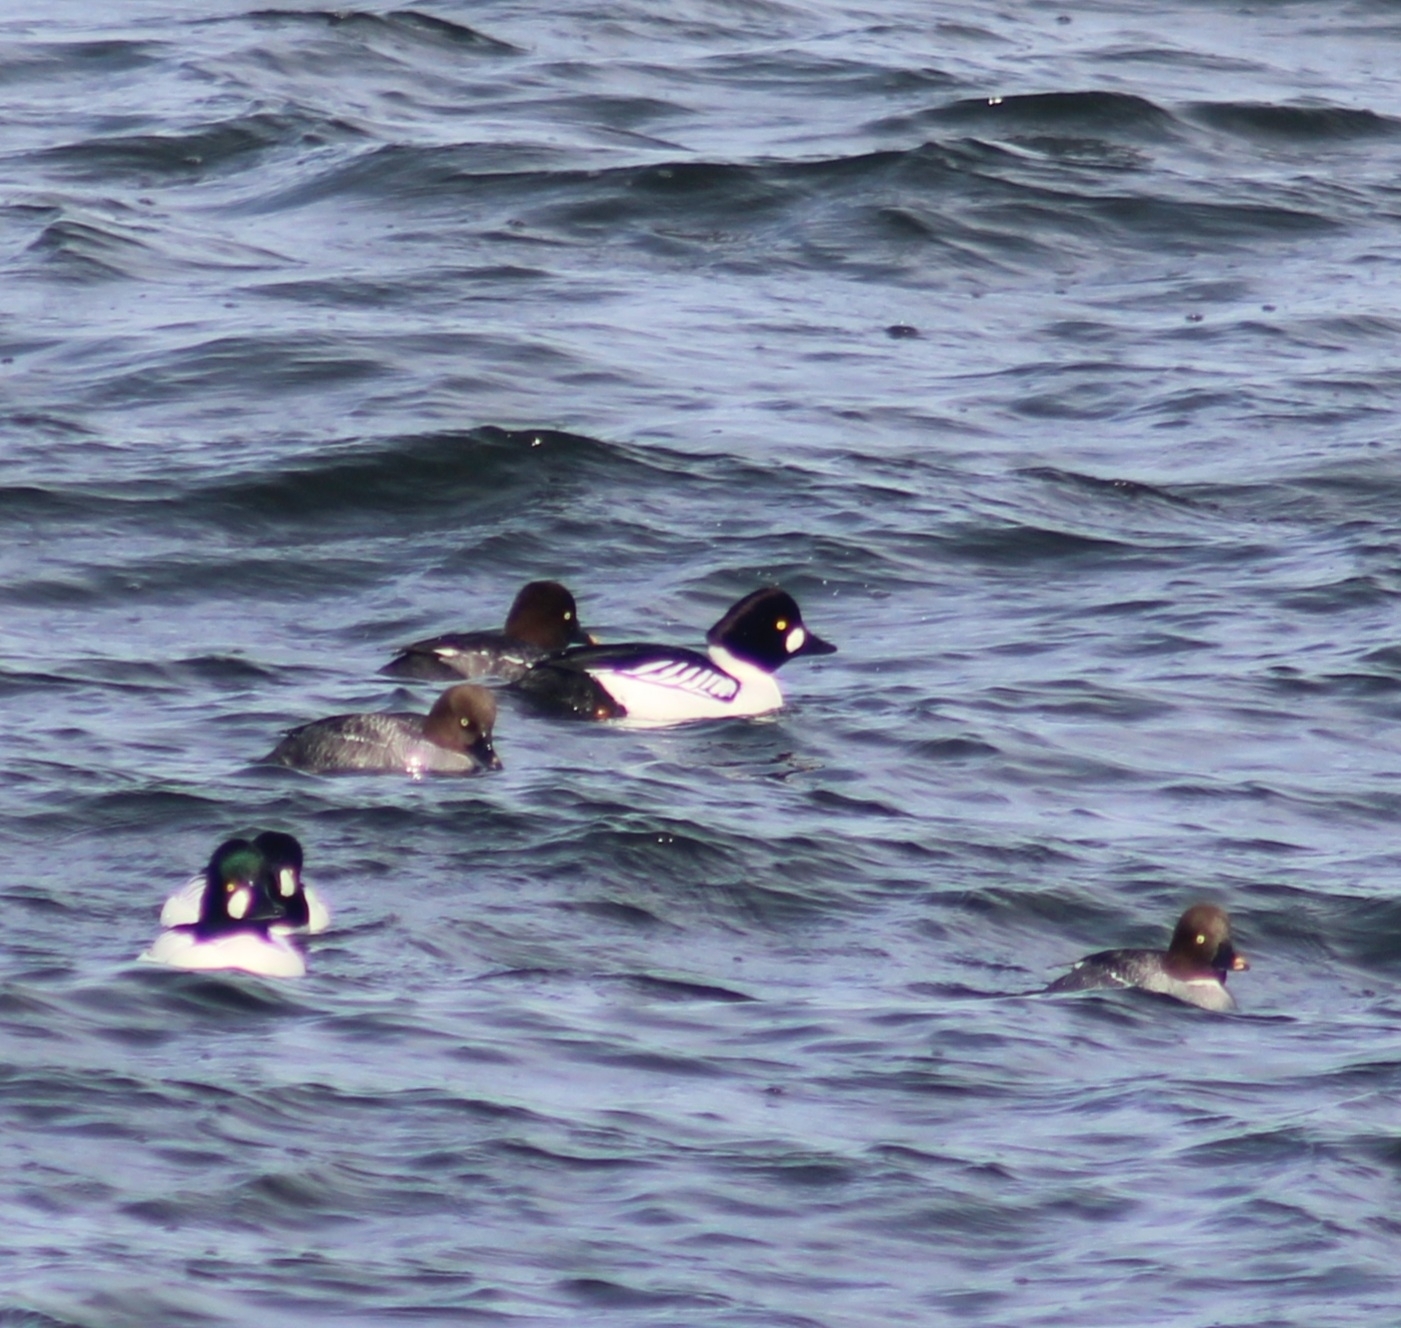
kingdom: Animalia
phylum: Chordata
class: Aves
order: Anseriformes
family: Anatidae
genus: Bucephala
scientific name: Bucephala clangula
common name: Common goldeneye
